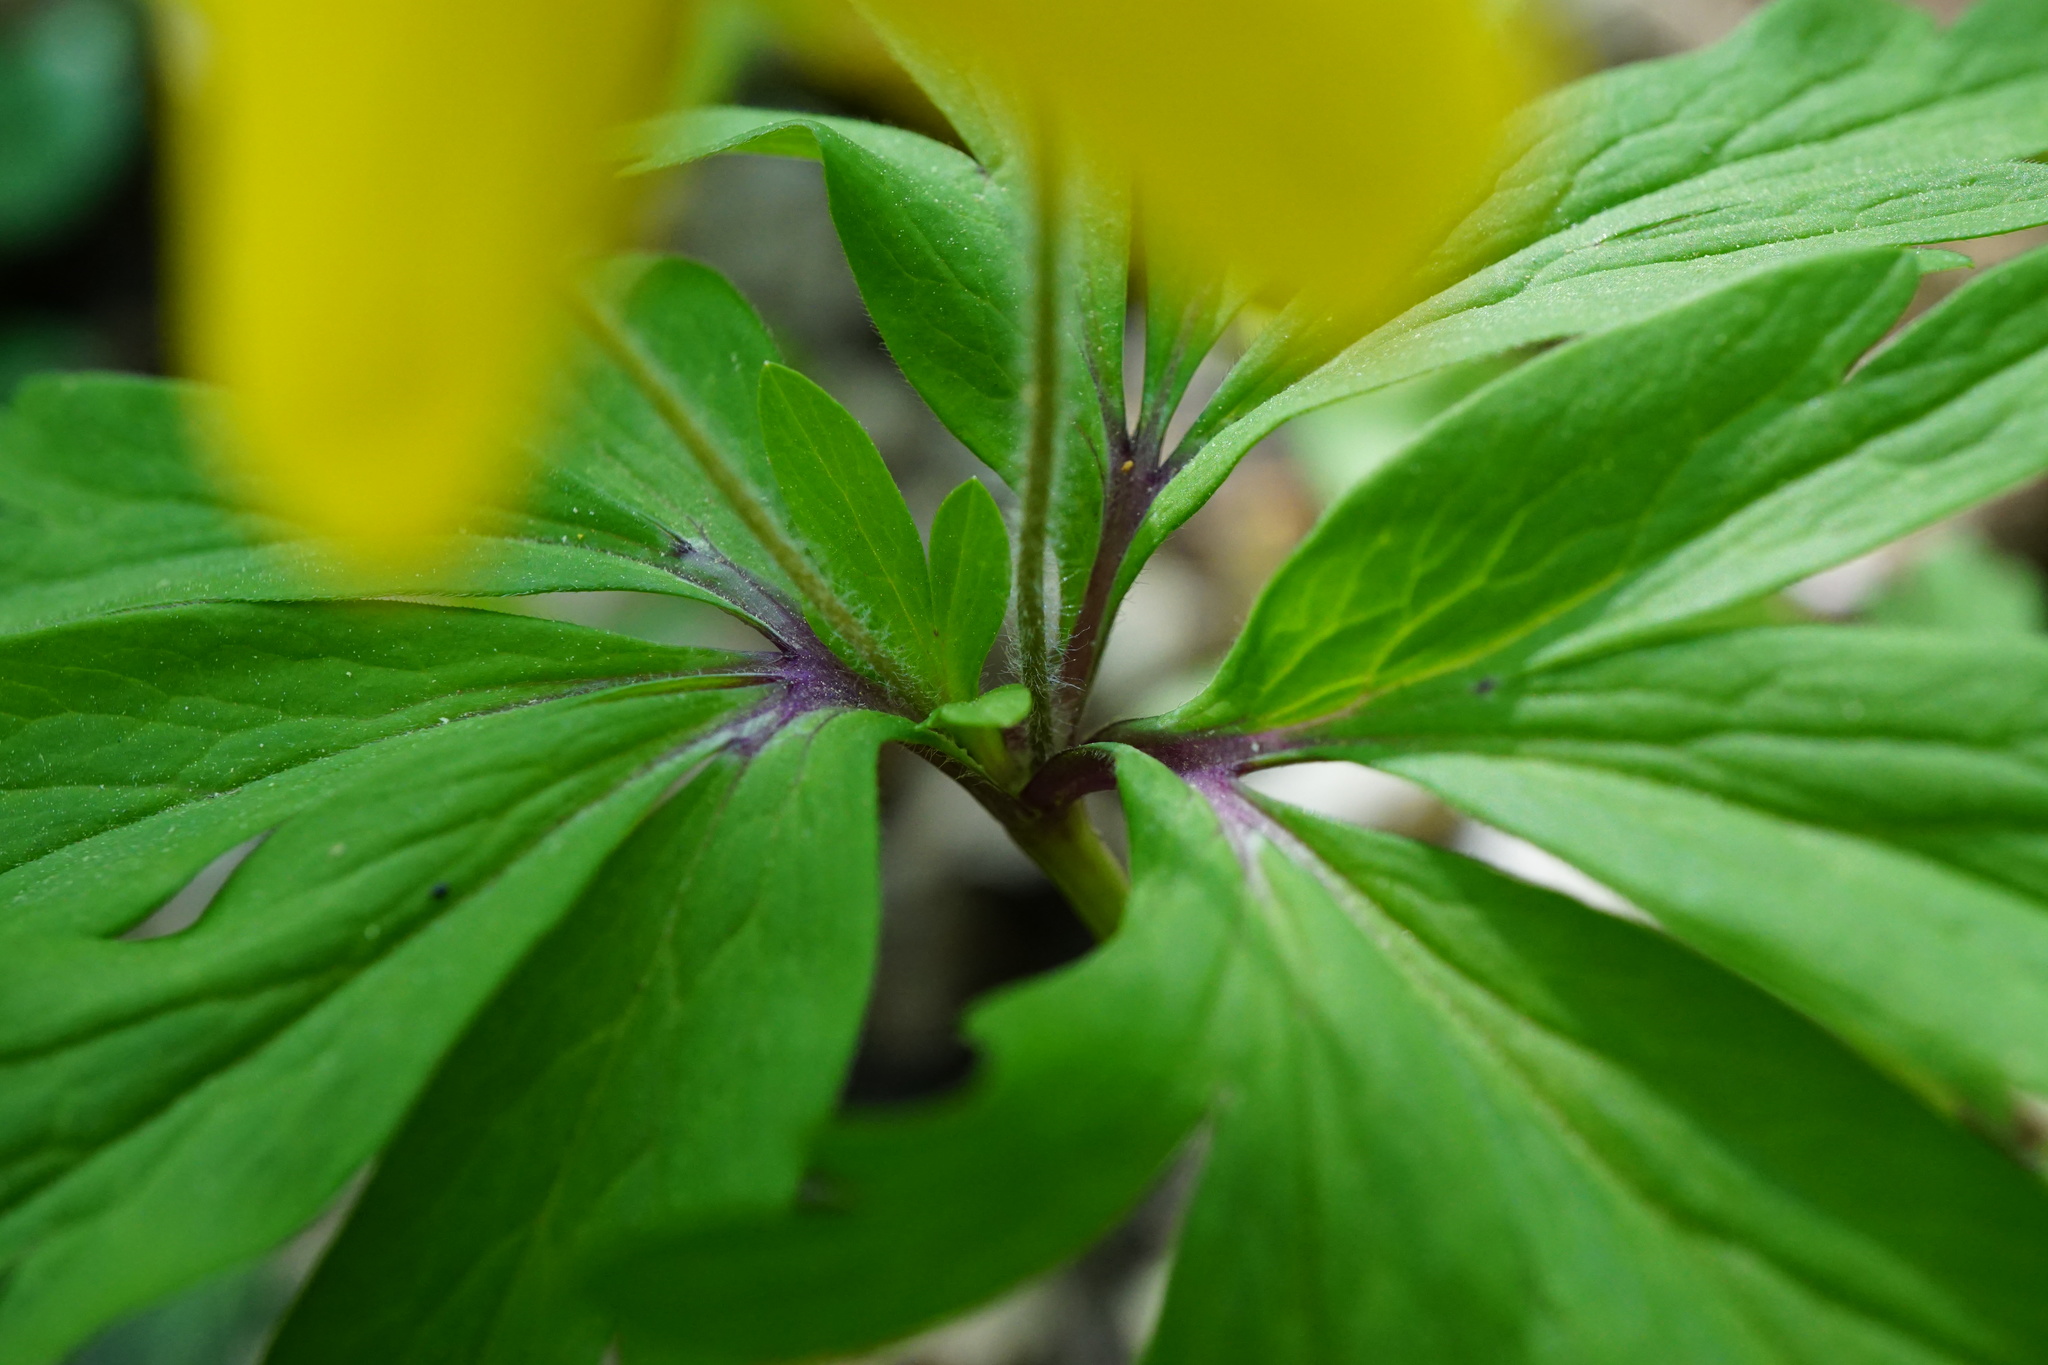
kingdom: Plantae
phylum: Tracheophyta
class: Magnoliopsida
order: Ranunculales
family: Ranunculaceae
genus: Anemone
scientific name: Anemone ranunculoides
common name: Yellow anemone
